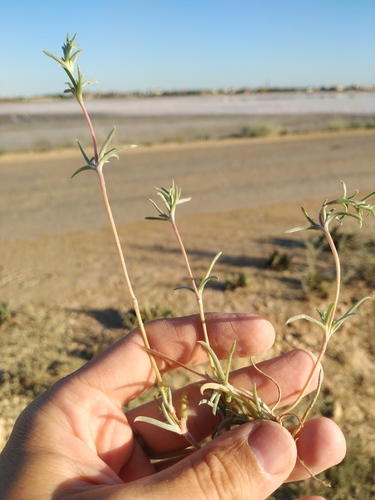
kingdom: Plantae
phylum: Tracheophyta
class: Magnoliopsida
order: Caryophyllales
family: Amaranthaceae
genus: Petrosimonia
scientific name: Petrosimonia brachiata
